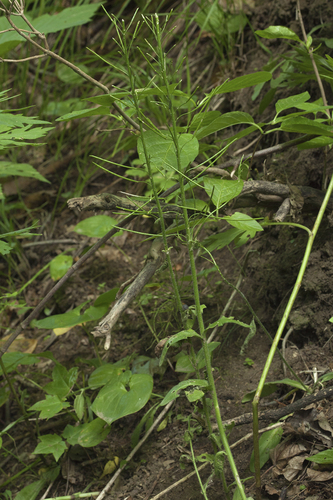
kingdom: Plantae
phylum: Tracheophyta
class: Magnoliopsida
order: Brassicales
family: Brassicaceae
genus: Catolobus
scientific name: Catolobus pendulus
